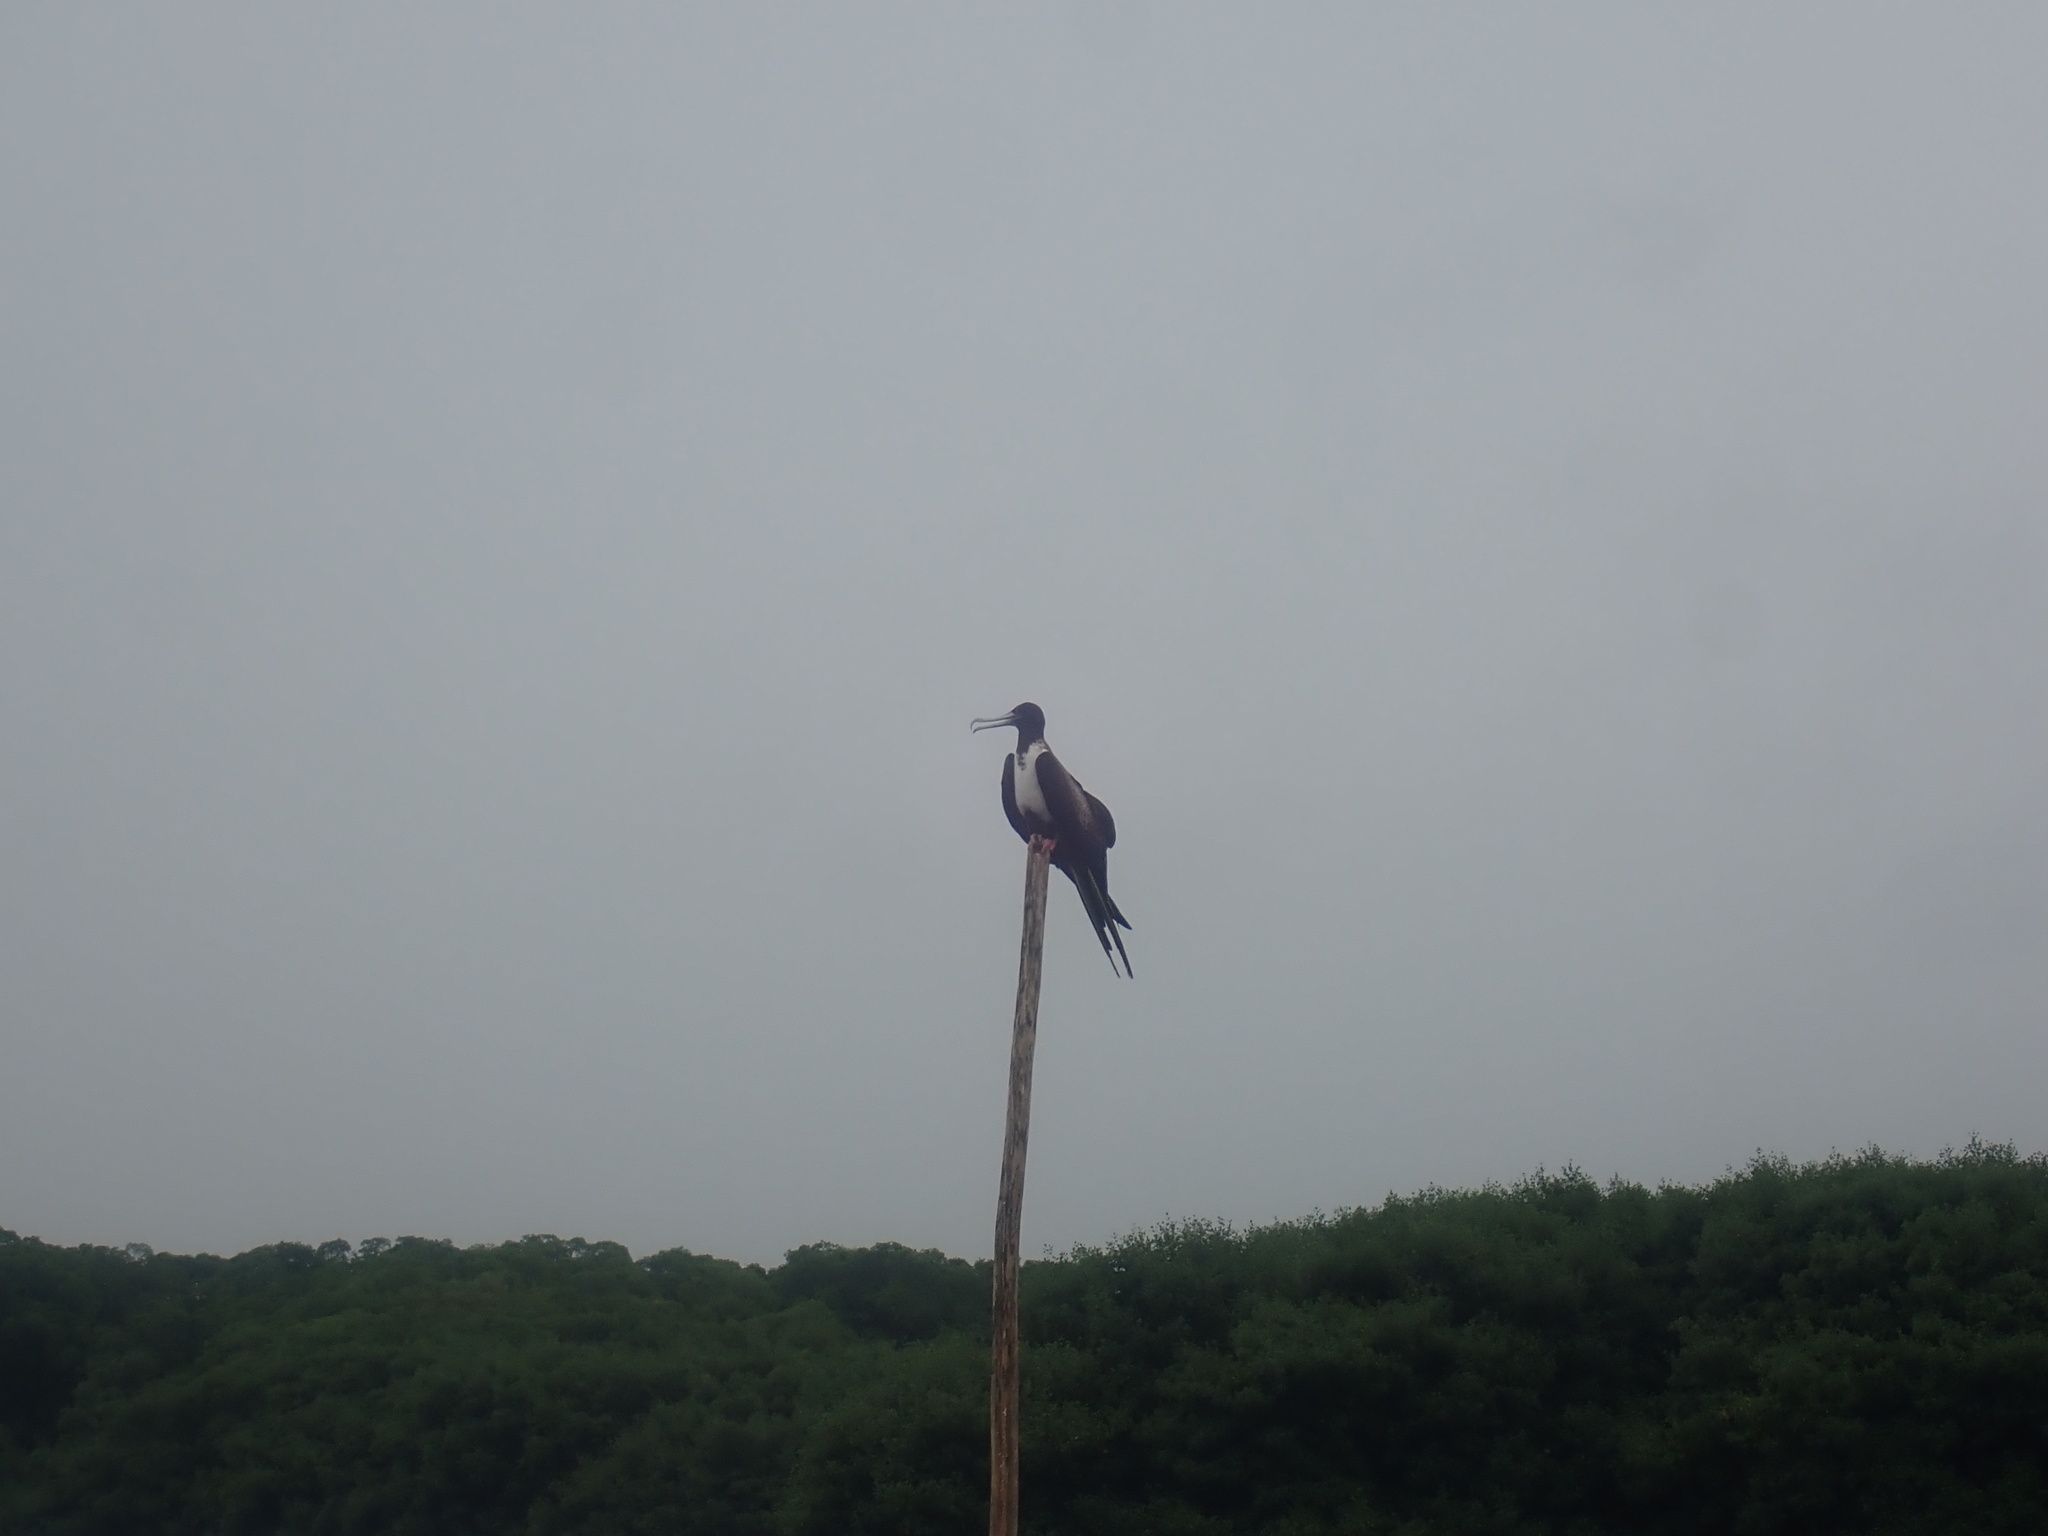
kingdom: Animalia
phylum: Chordata
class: Aves
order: Suliformes
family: Fregatidae
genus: Fregata
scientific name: Fregata magnificens
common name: Magnificent frigatebird
